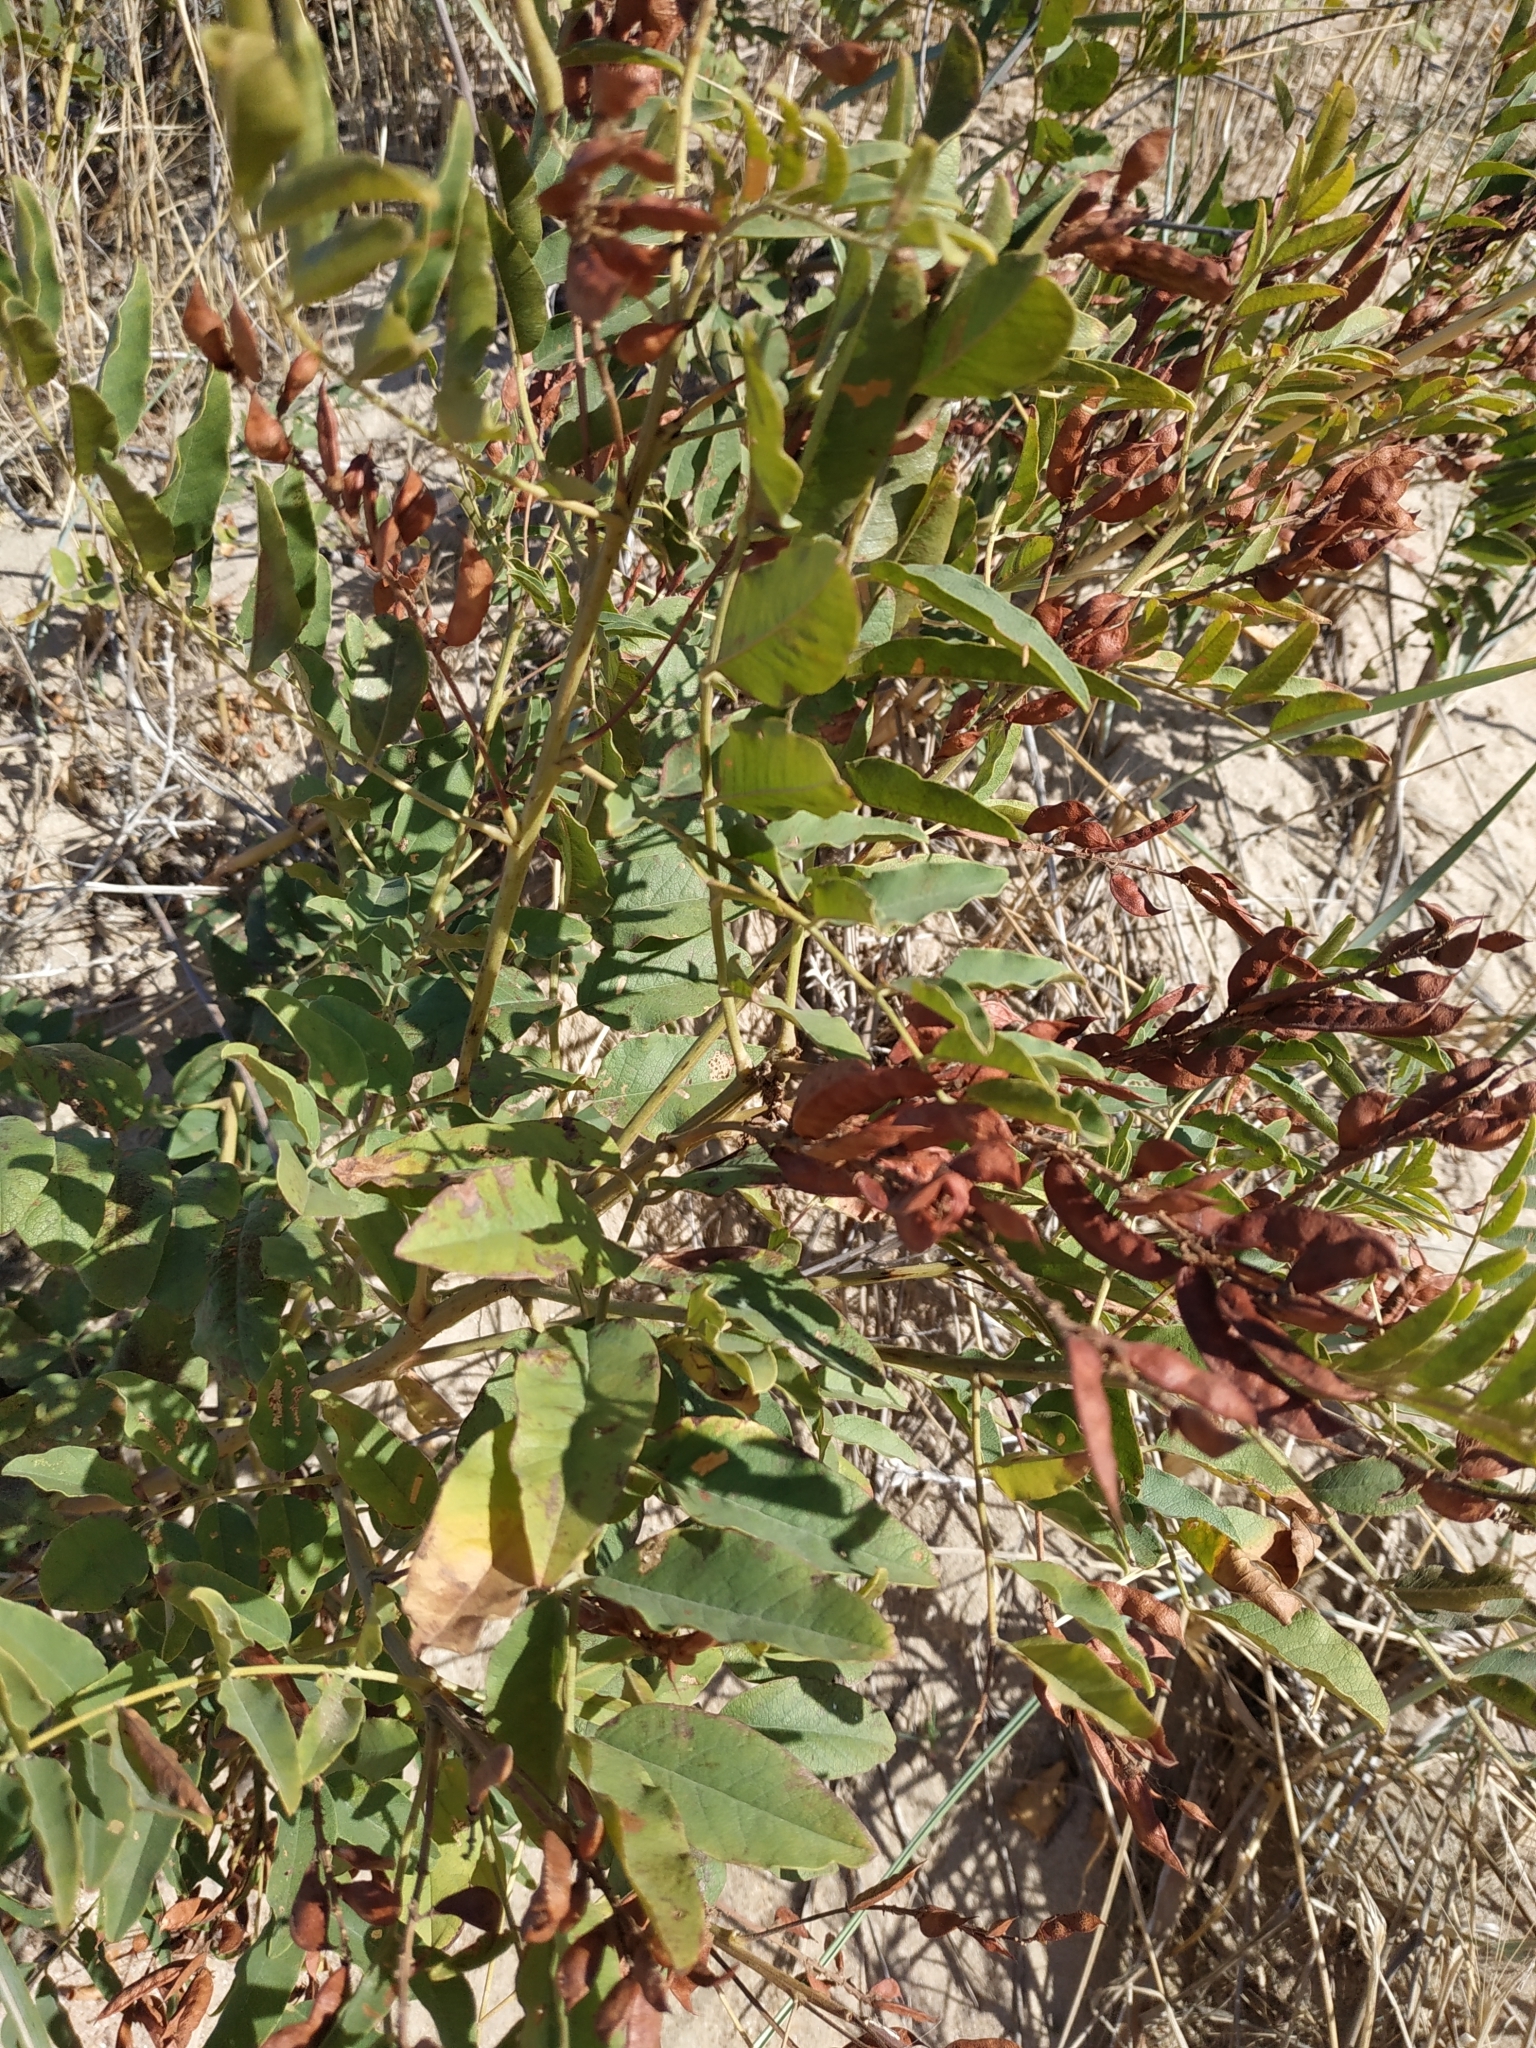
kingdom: Plantae
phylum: Tracheophyta
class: Magnoliopsida
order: Fabales
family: Fabaceae
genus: Glycyrrhiza
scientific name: Glycyrrhiza glabra
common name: Liquorice
